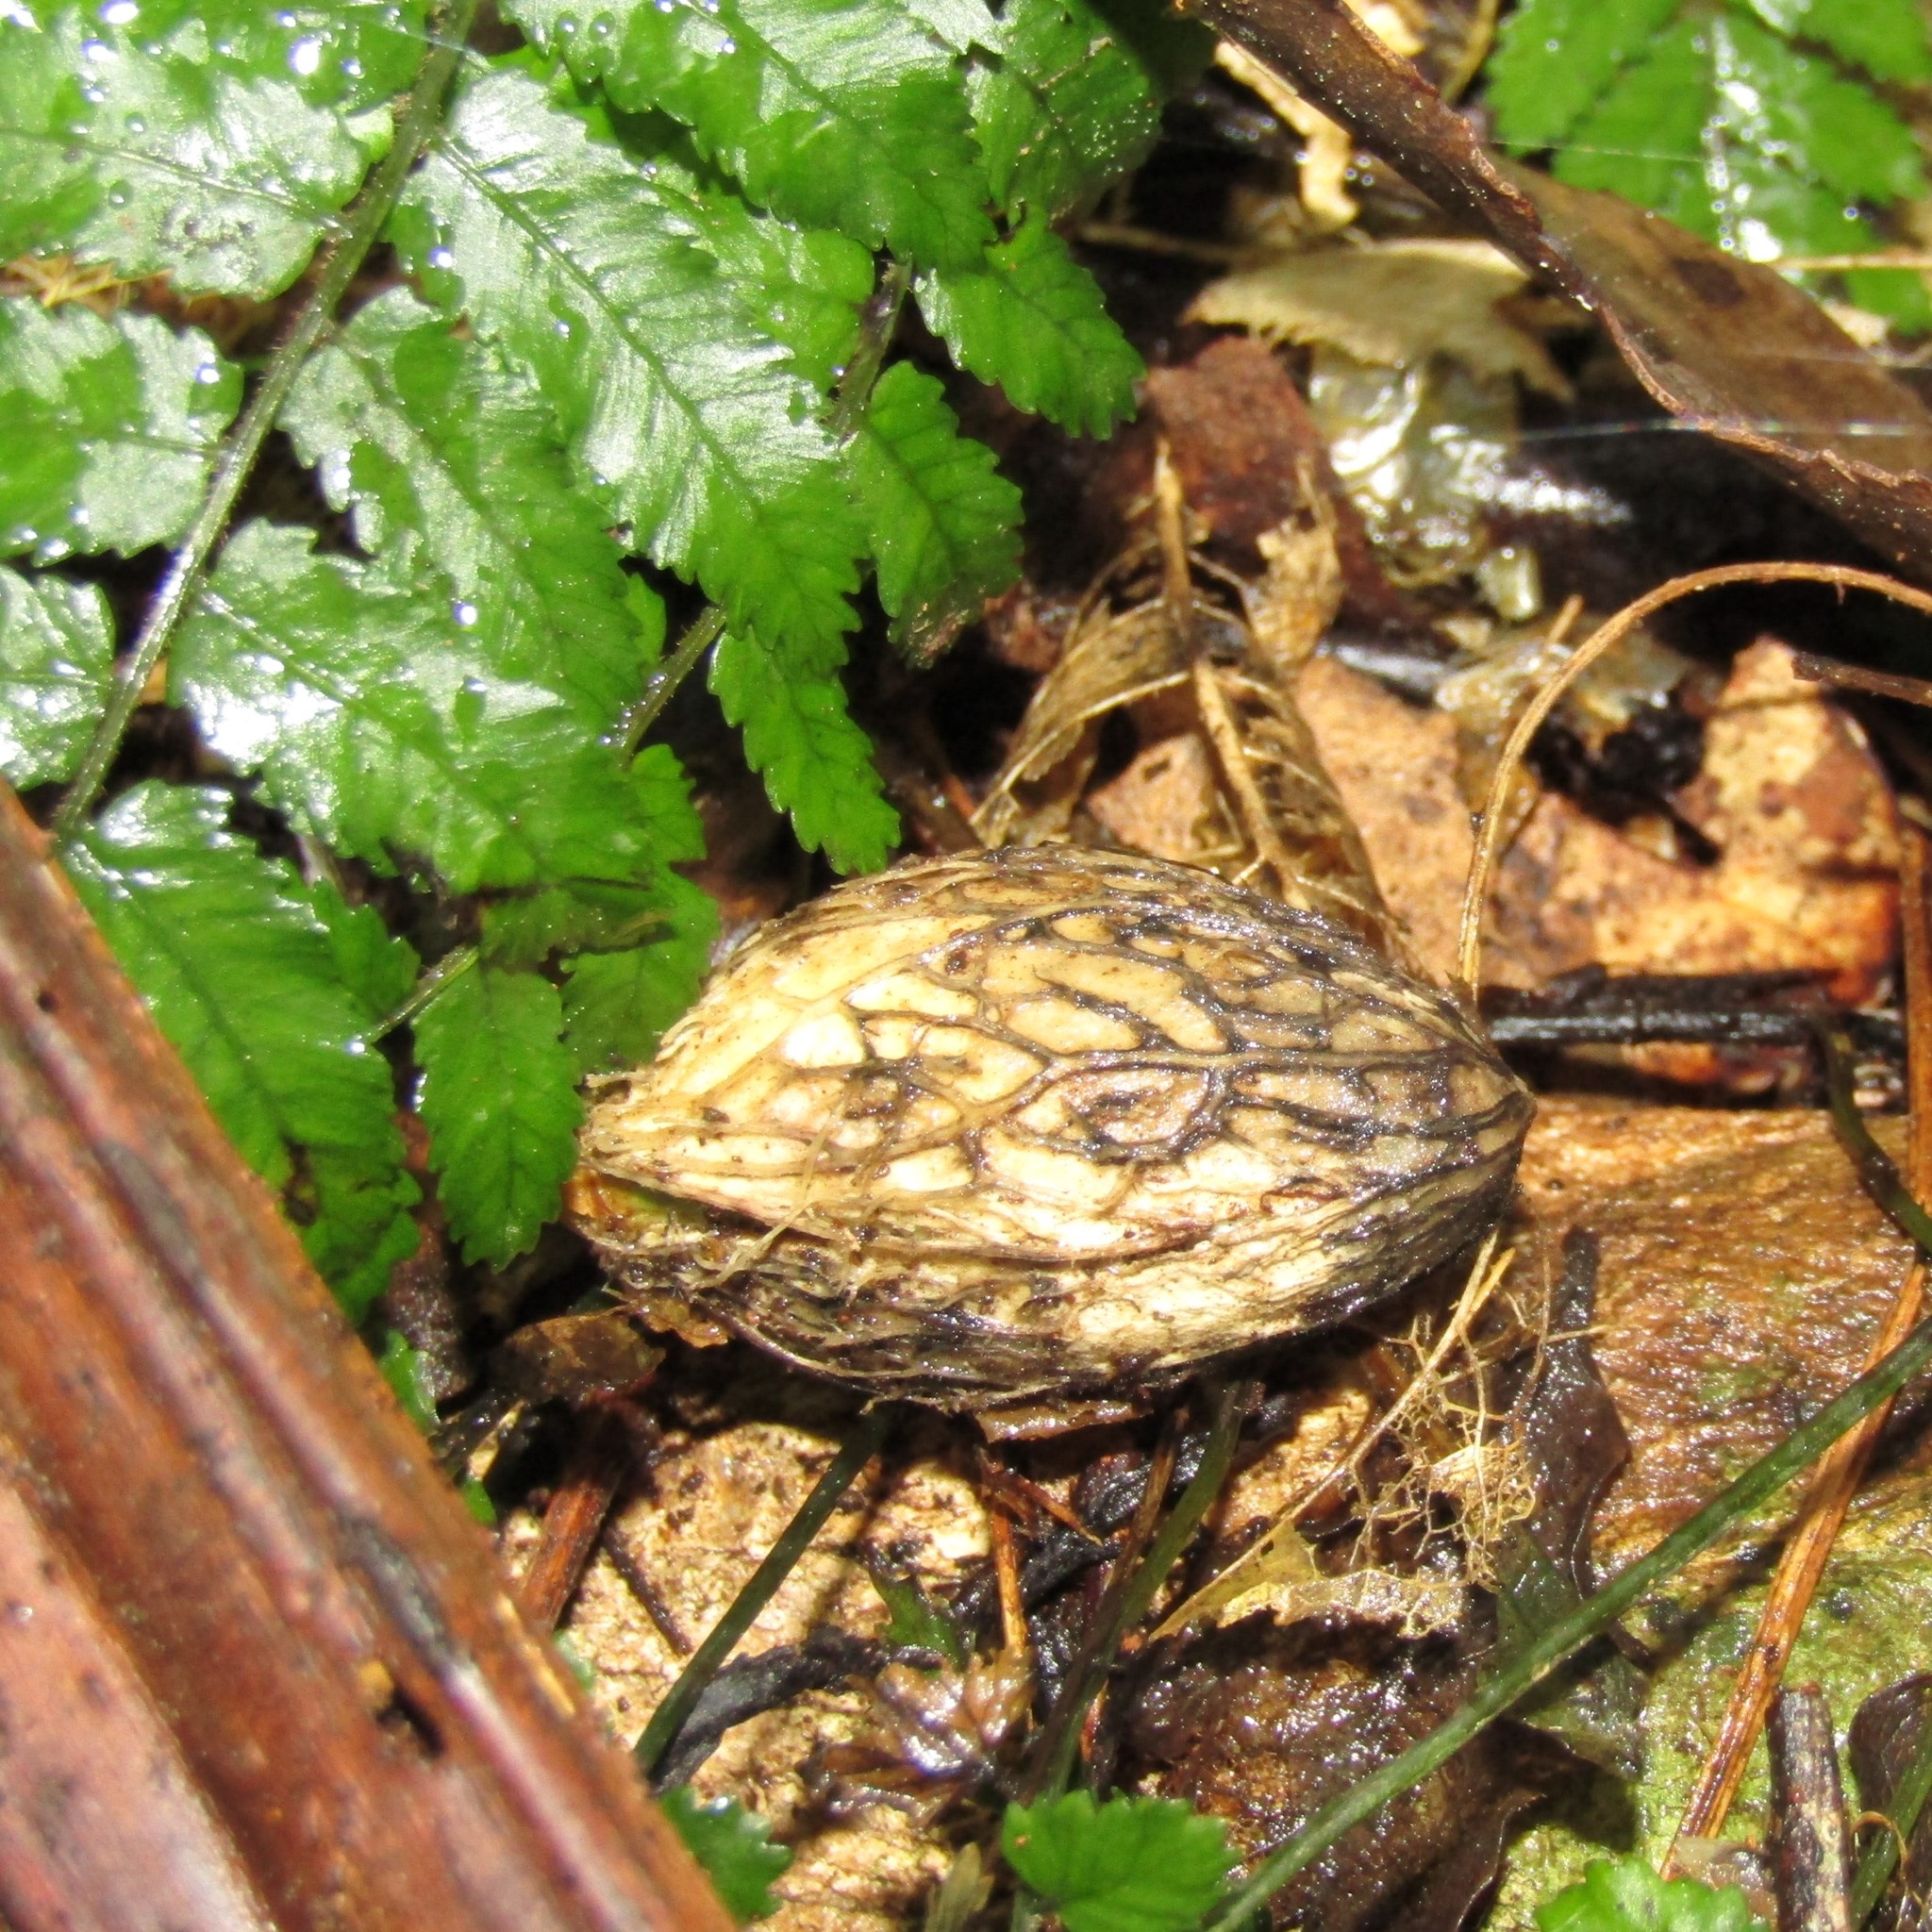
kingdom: Plantae
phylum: Tracheophyta
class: Magnoliopsida
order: Cucurbitales
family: Corynocarpaceae
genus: Corynocarpus
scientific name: Corynocarpus laevigatus
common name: New zealand laurel
